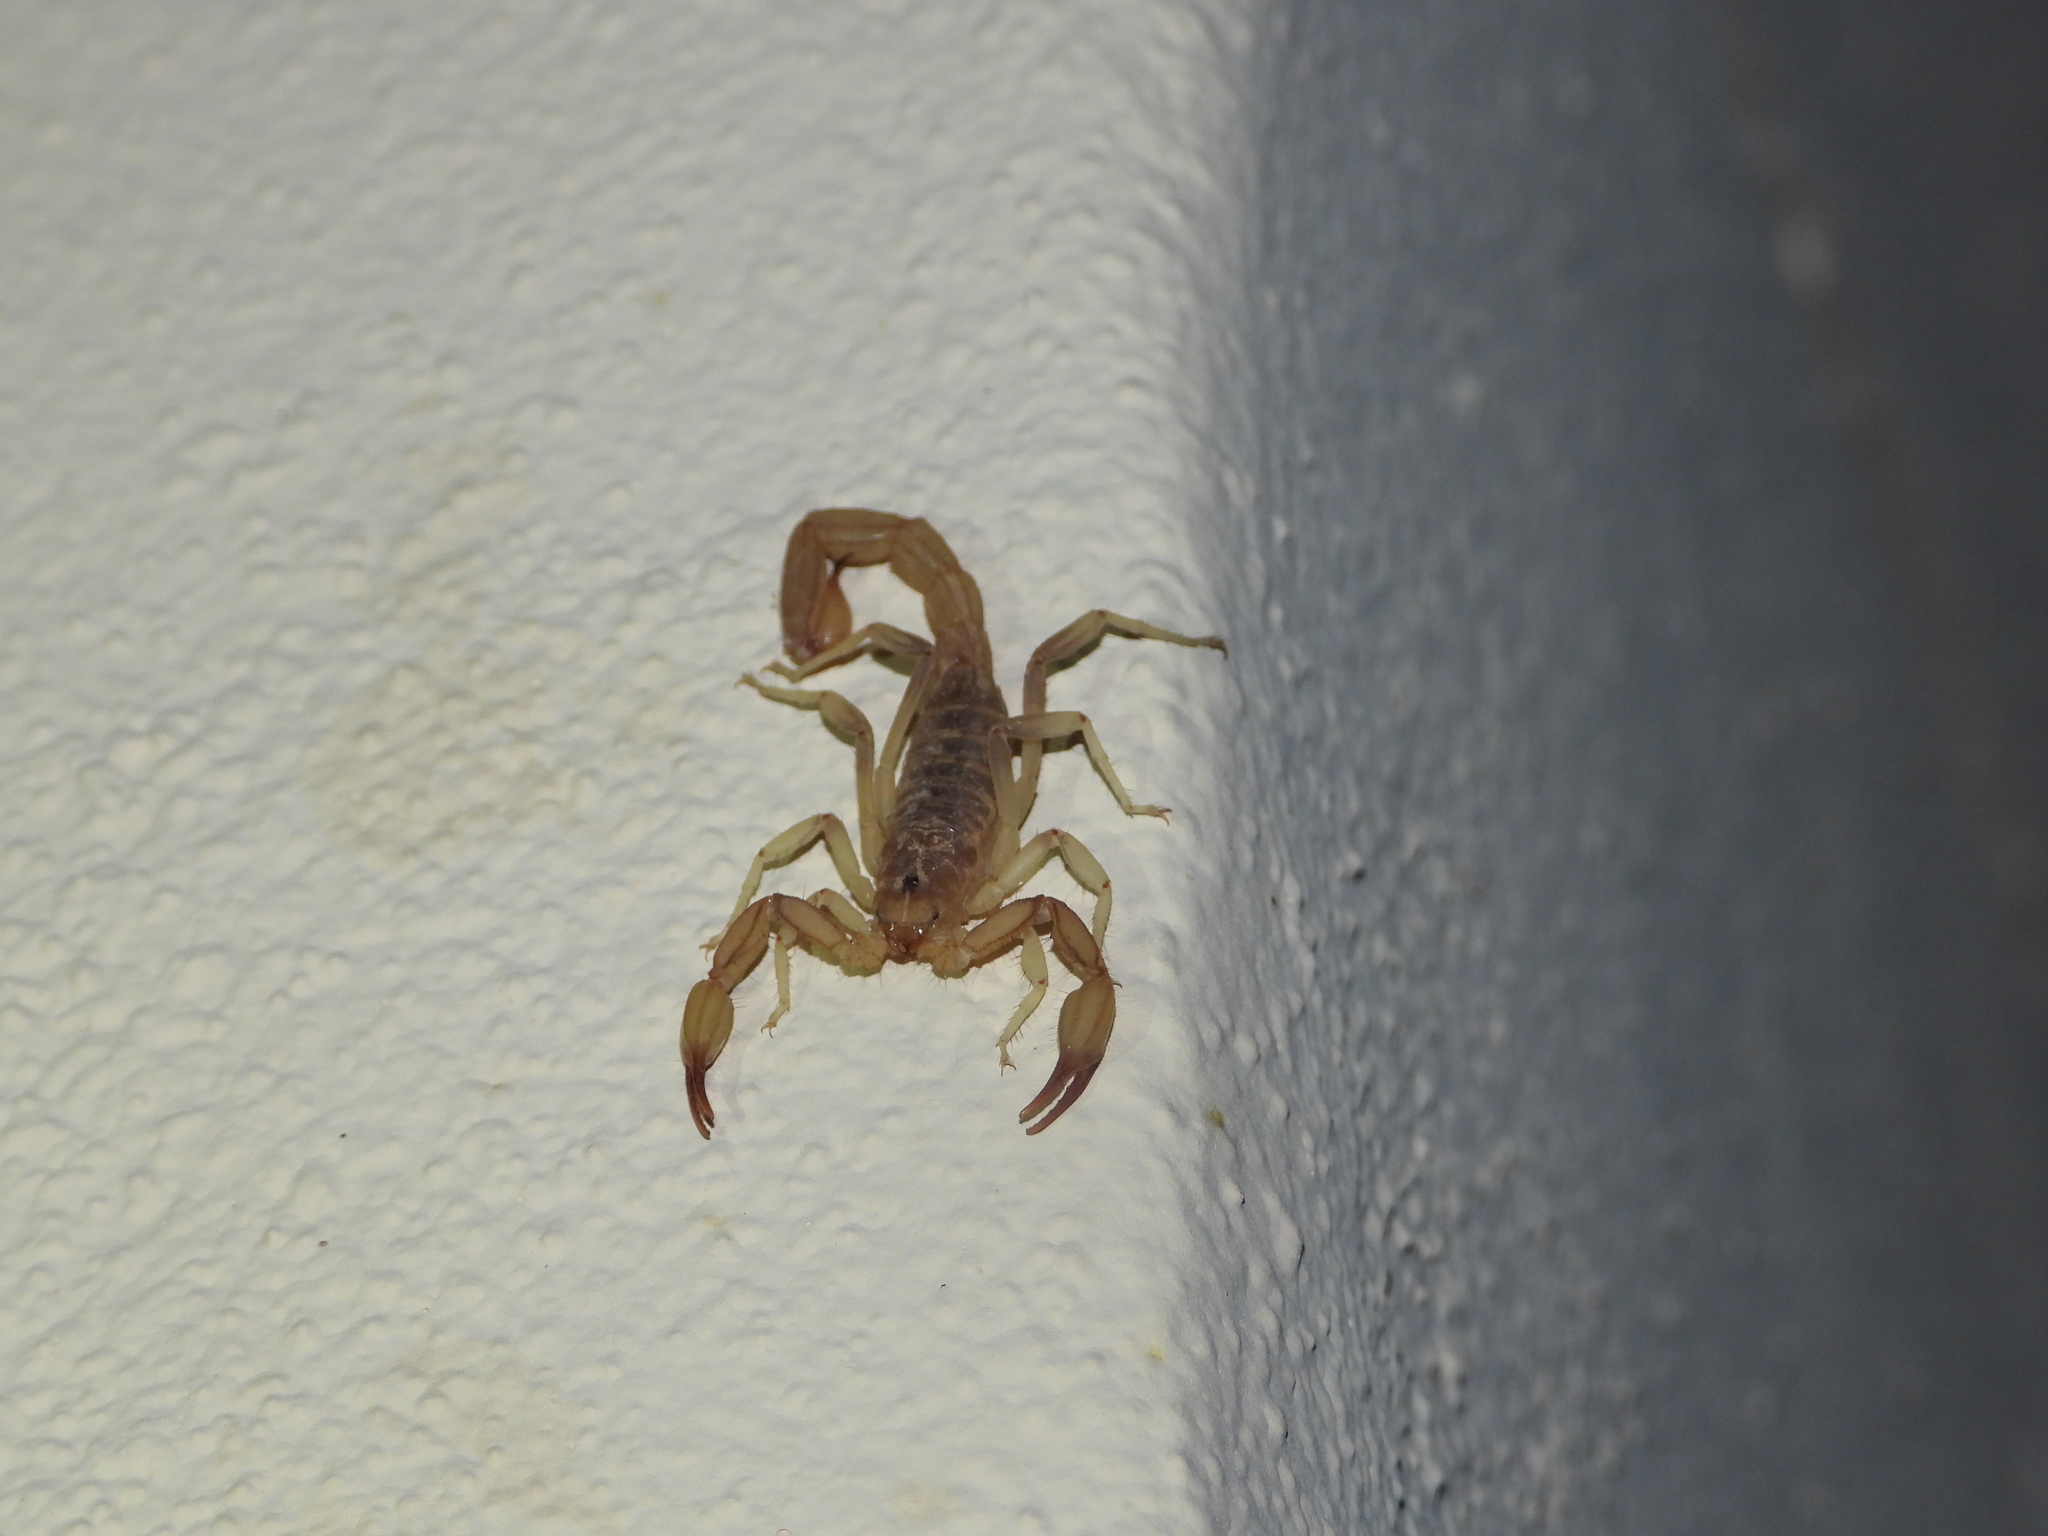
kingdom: Animalia
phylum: Arthropoda
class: Arachnida
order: Scorpiones
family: Vaejovidae
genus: Chihuahuanus
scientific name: Chihuahuanus russelli
